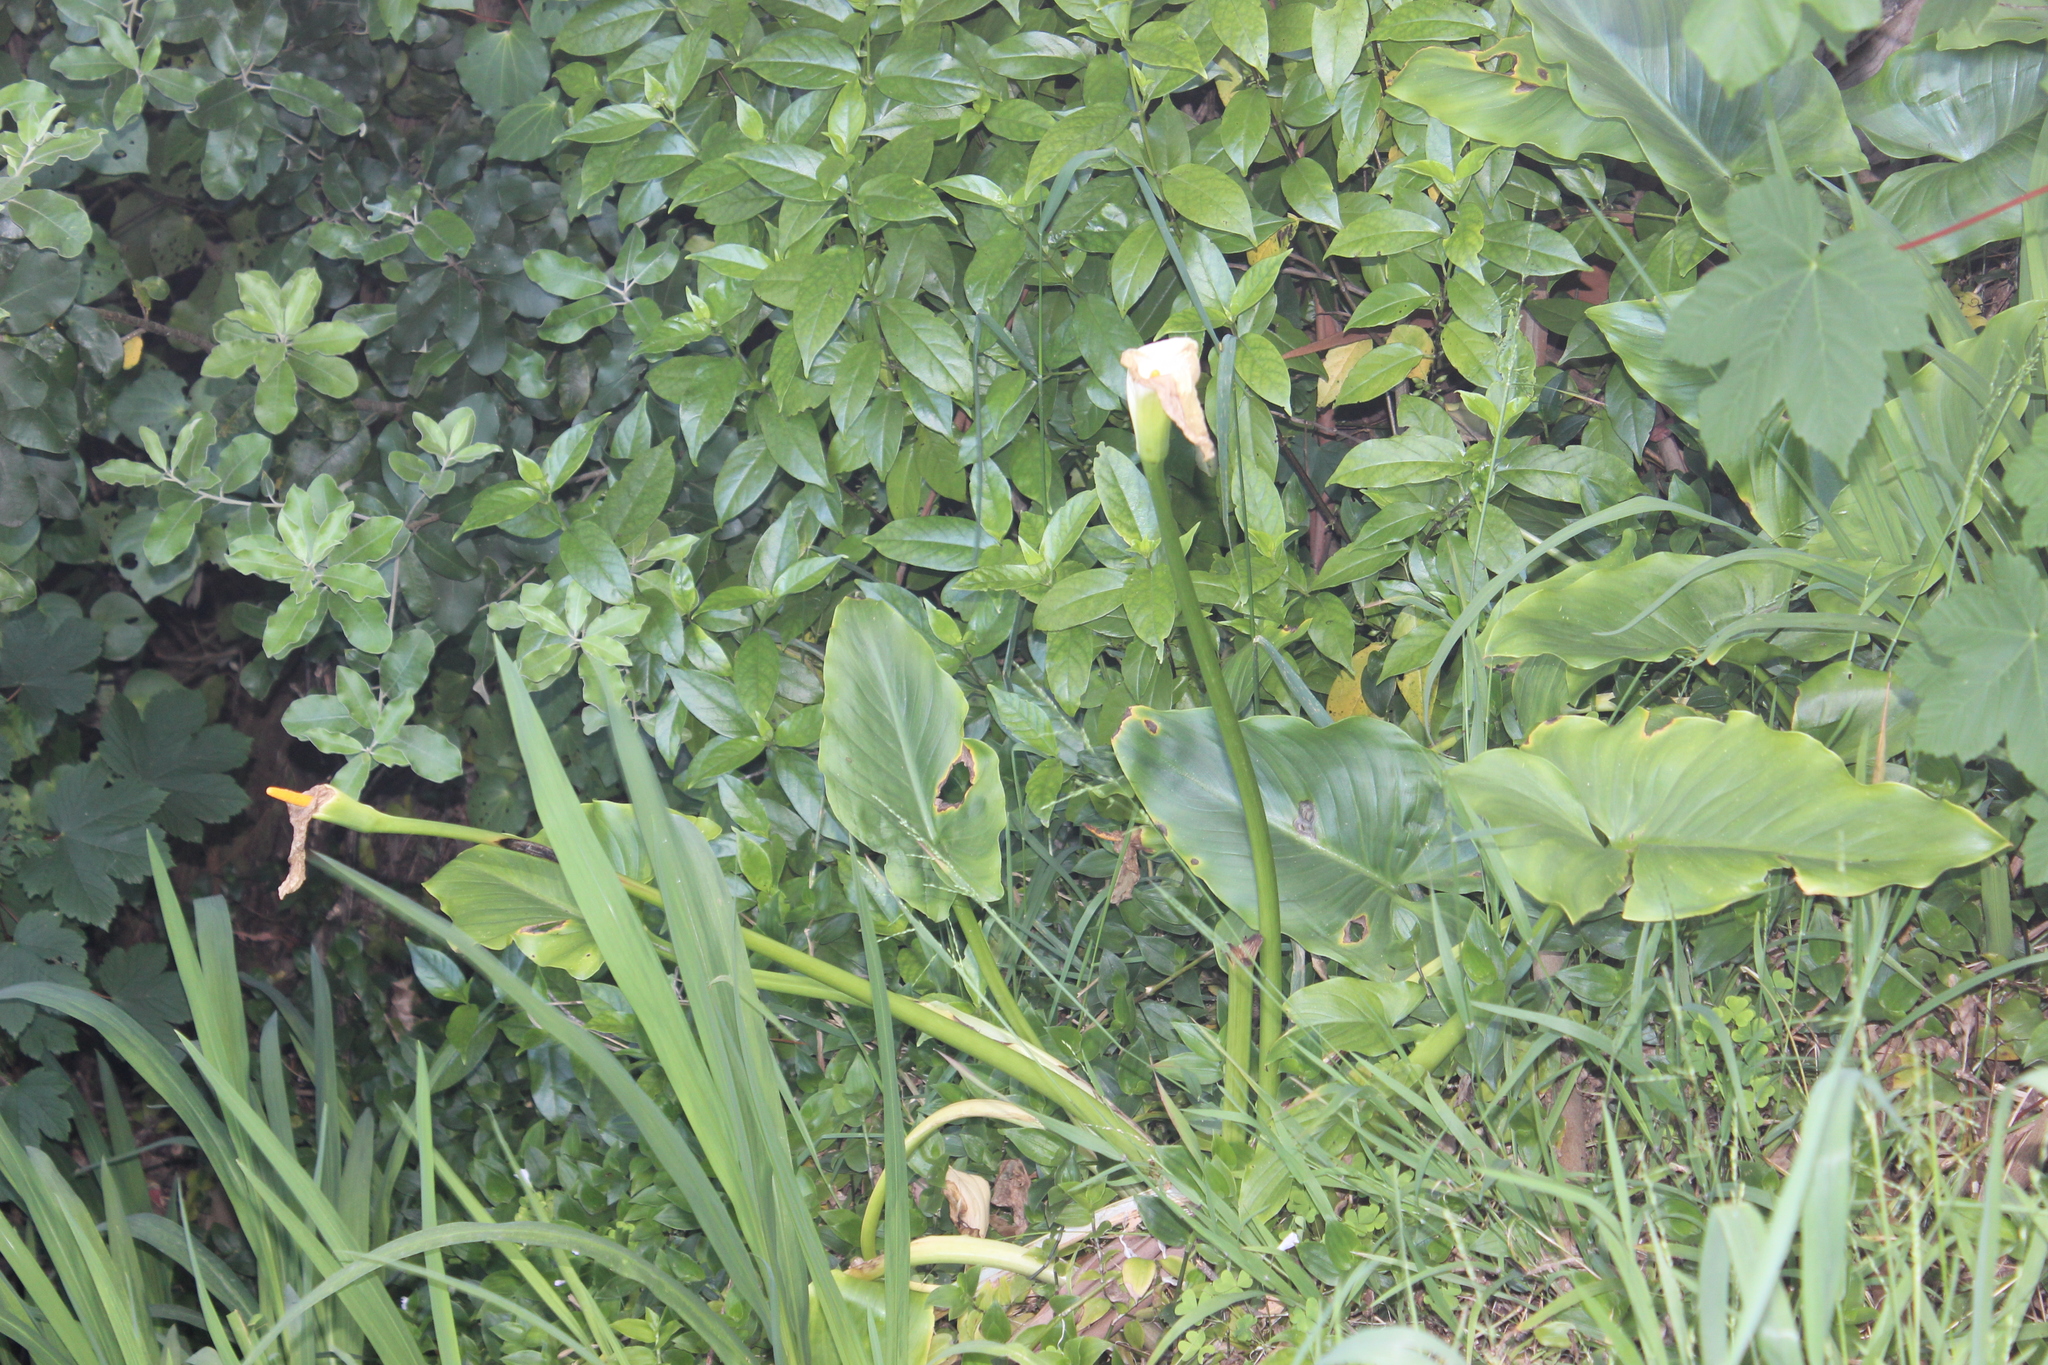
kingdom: Plantae
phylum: Tracheophyta
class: Liliopsida
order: Alismatales
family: Araceae
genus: Zantedeschia
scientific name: Zantedeschia aethiopica
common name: Altar-lily
